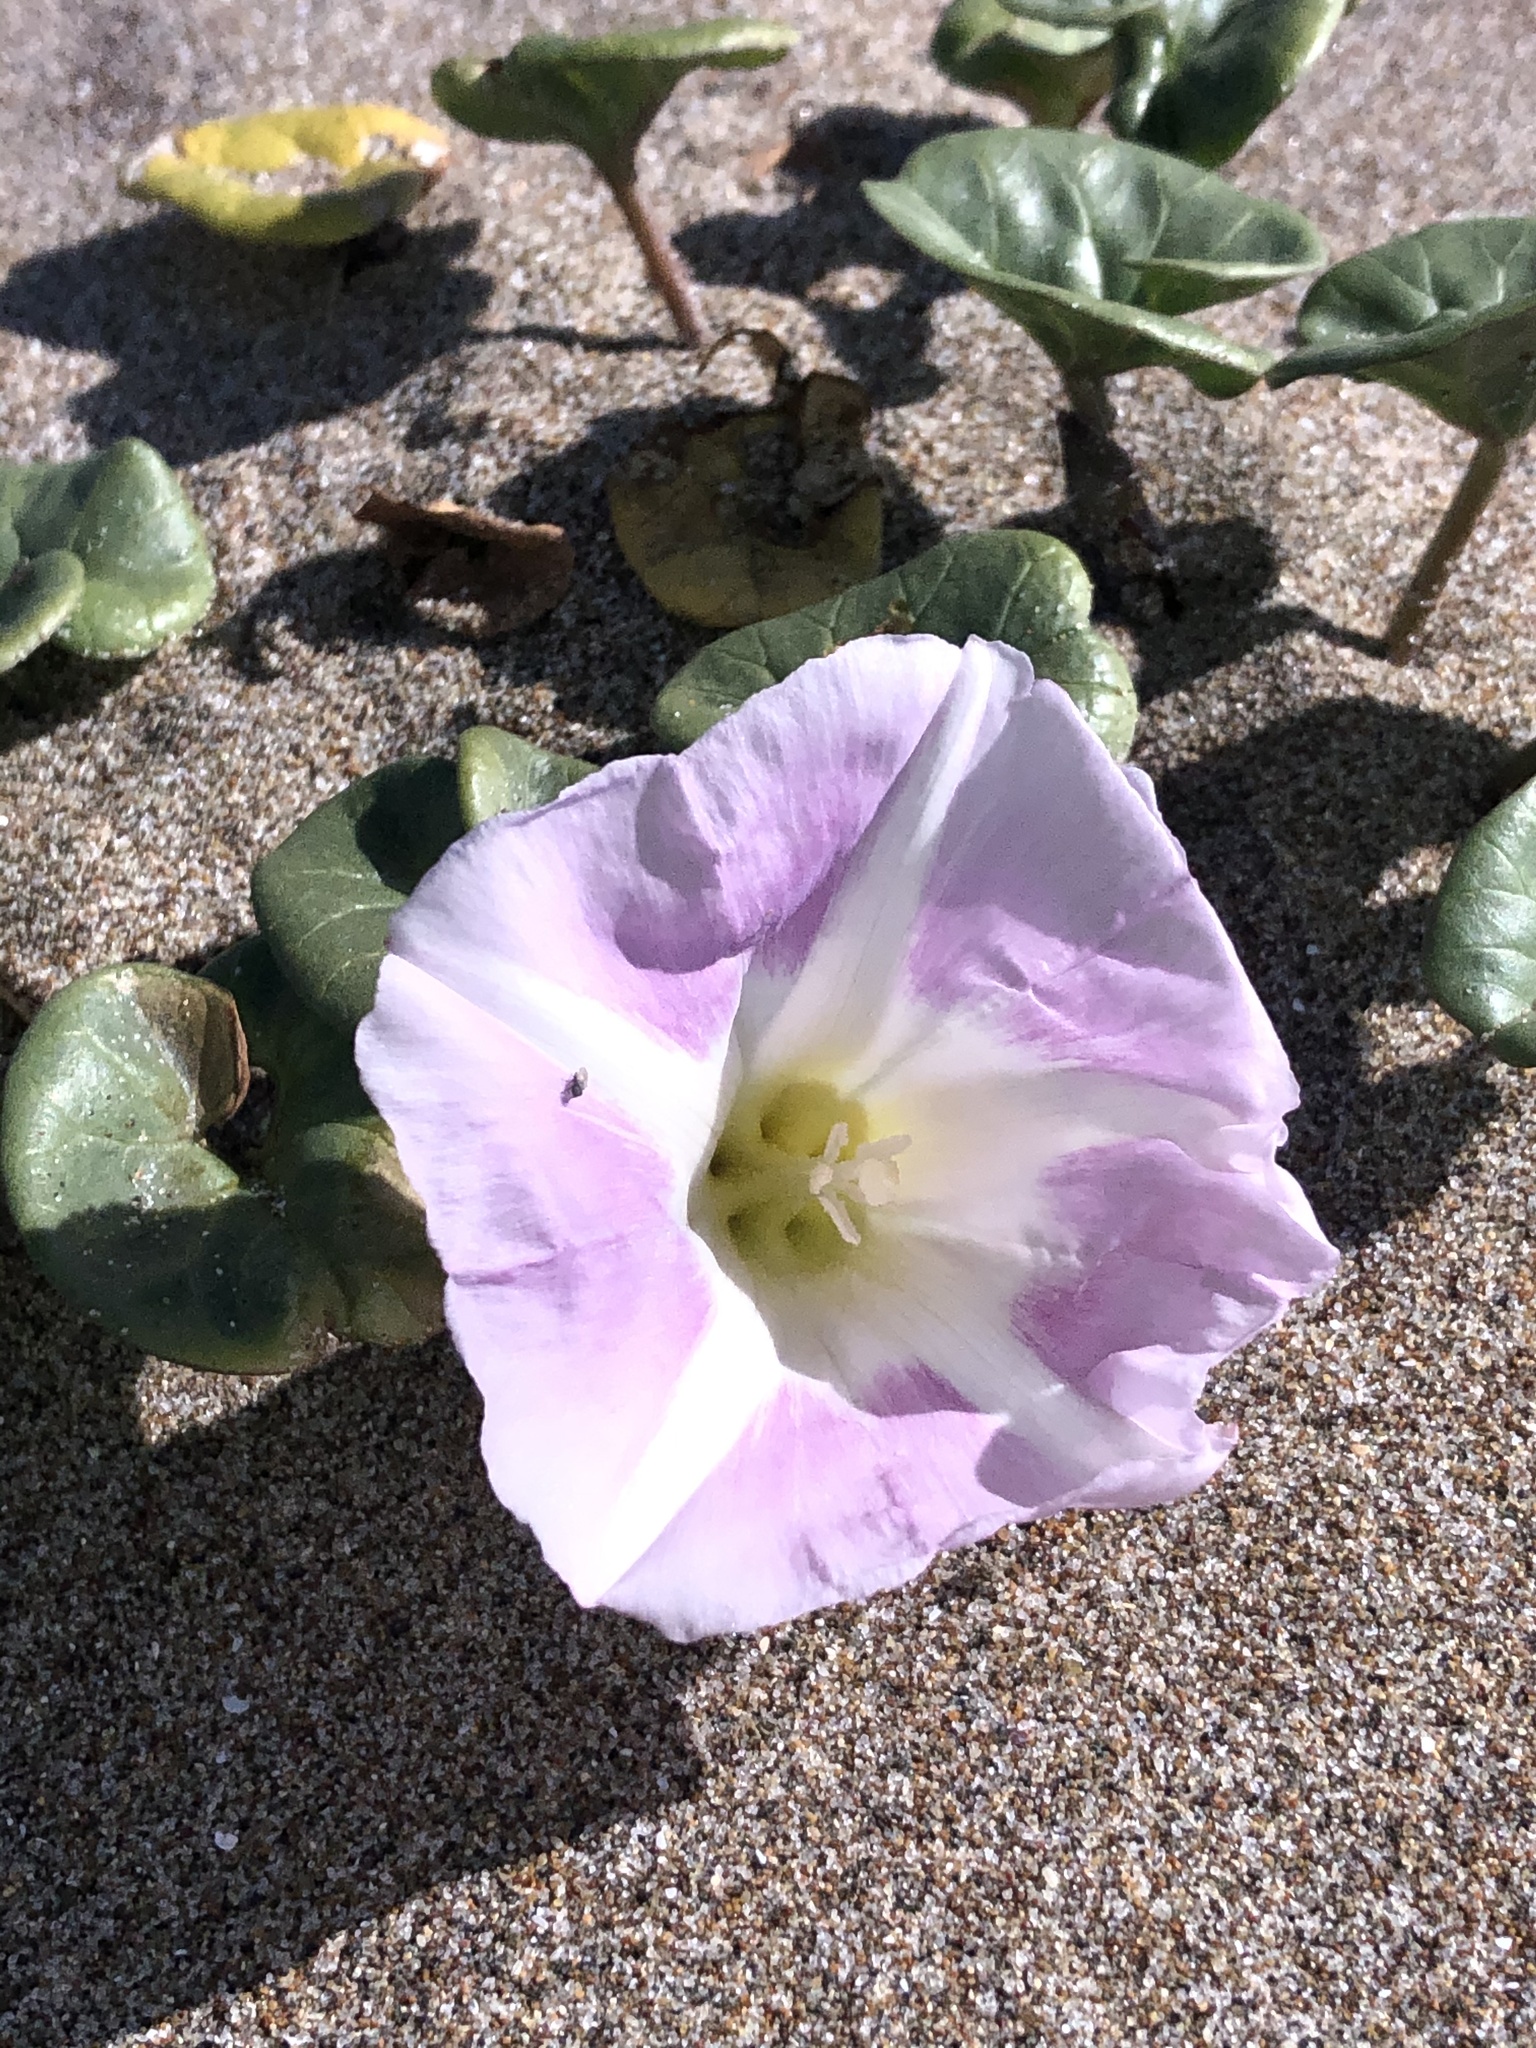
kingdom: Plantae
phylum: Tracheophyta
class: Magnoliopsida
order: Solanales
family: Convolvulaceae
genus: Calystegia
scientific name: Calystegia soldanella
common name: Sea bindweed
